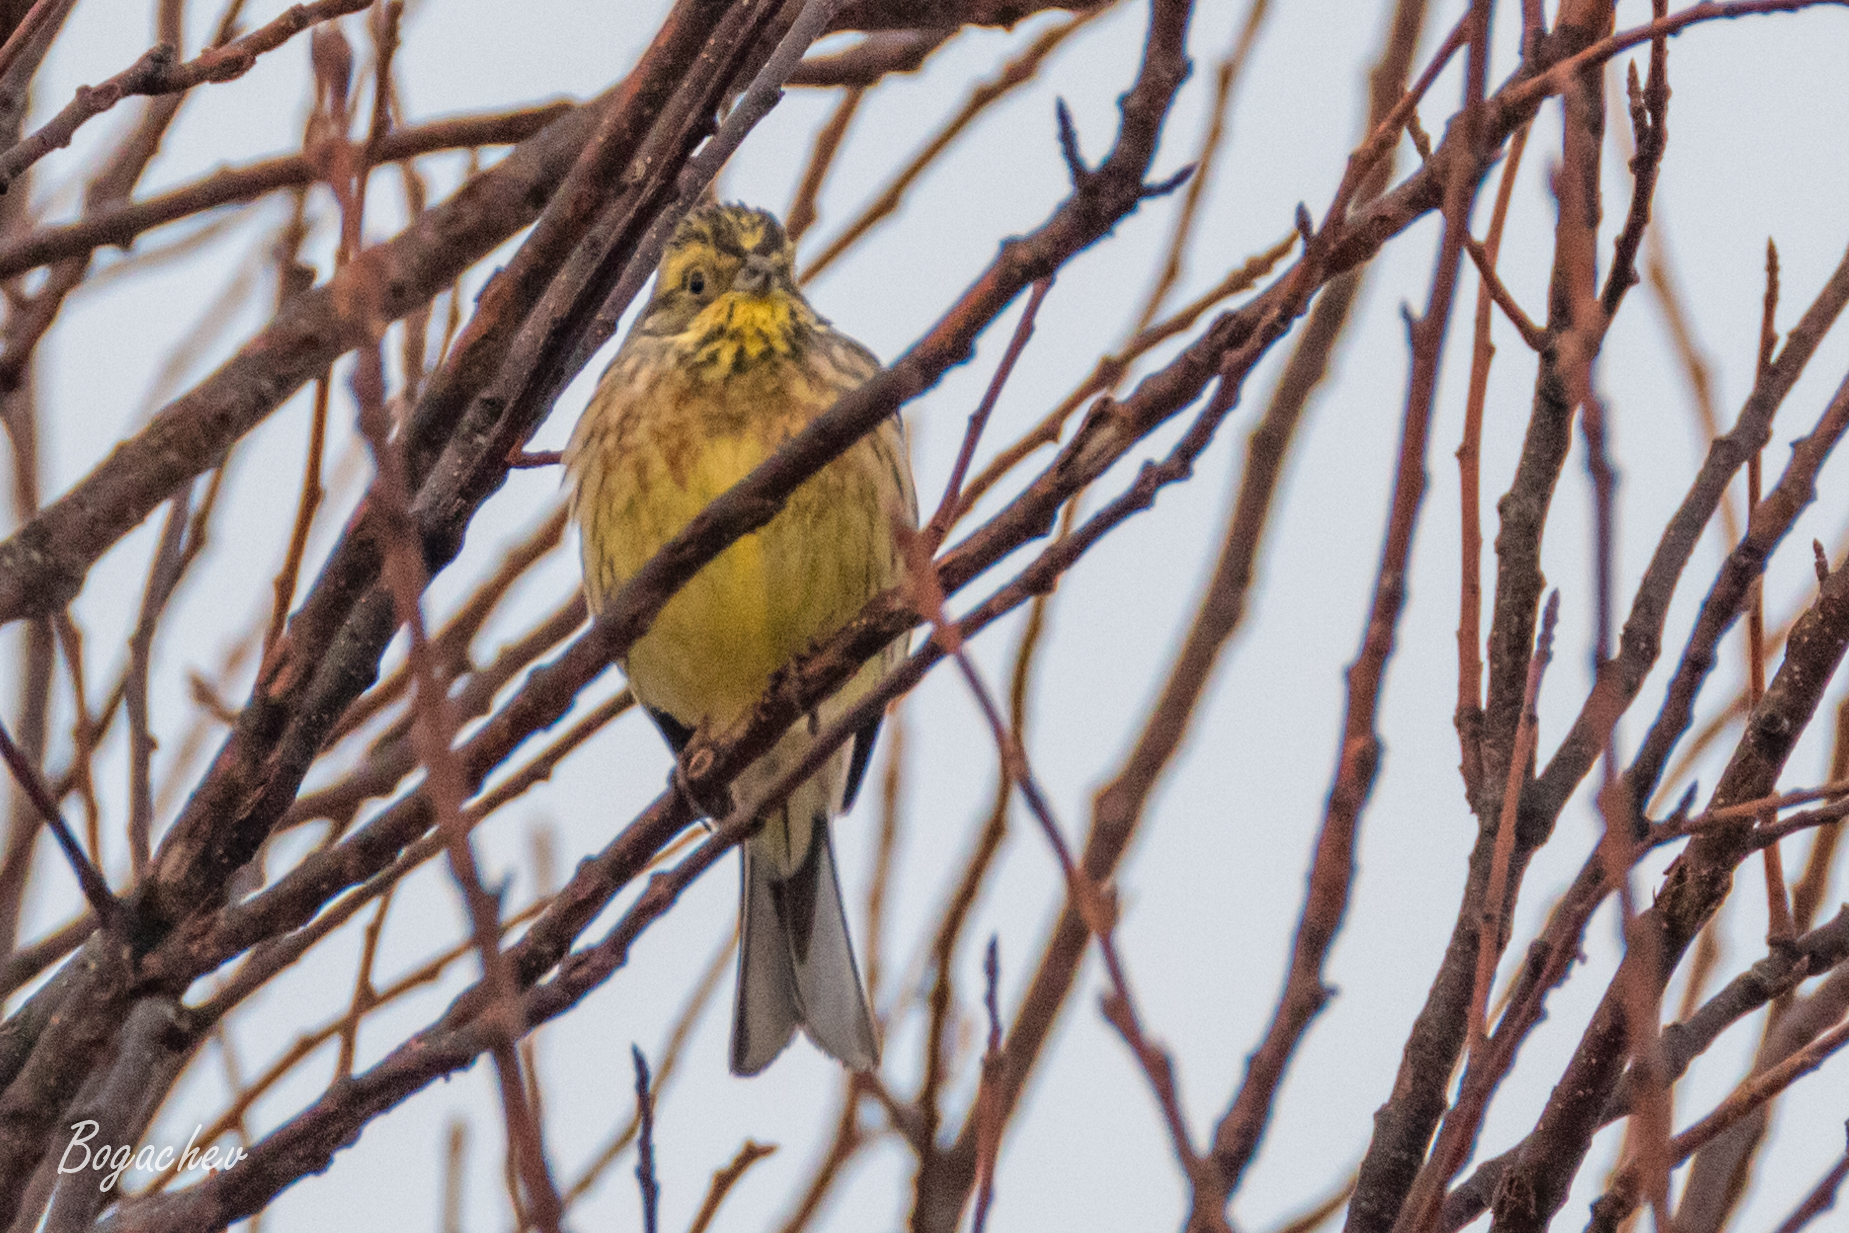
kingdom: Animalia
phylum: Chordata
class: Aves
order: Passeriformes
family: Emberizidae
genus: Emberiza
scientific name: Emberiza citrinella
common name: Yellowhammer
